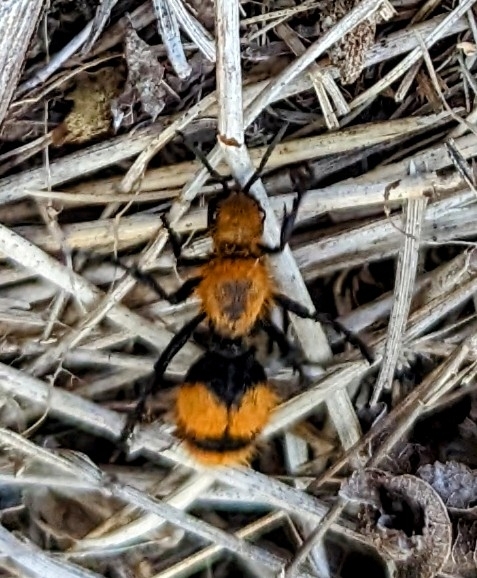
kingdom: Animalia
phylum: Arthropoda
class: Insecta
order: Hymenoptera
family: Mutillidae
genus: Dasymutilla
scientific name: Dasymutilla occidentalis
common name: Common eastern velvet ant
